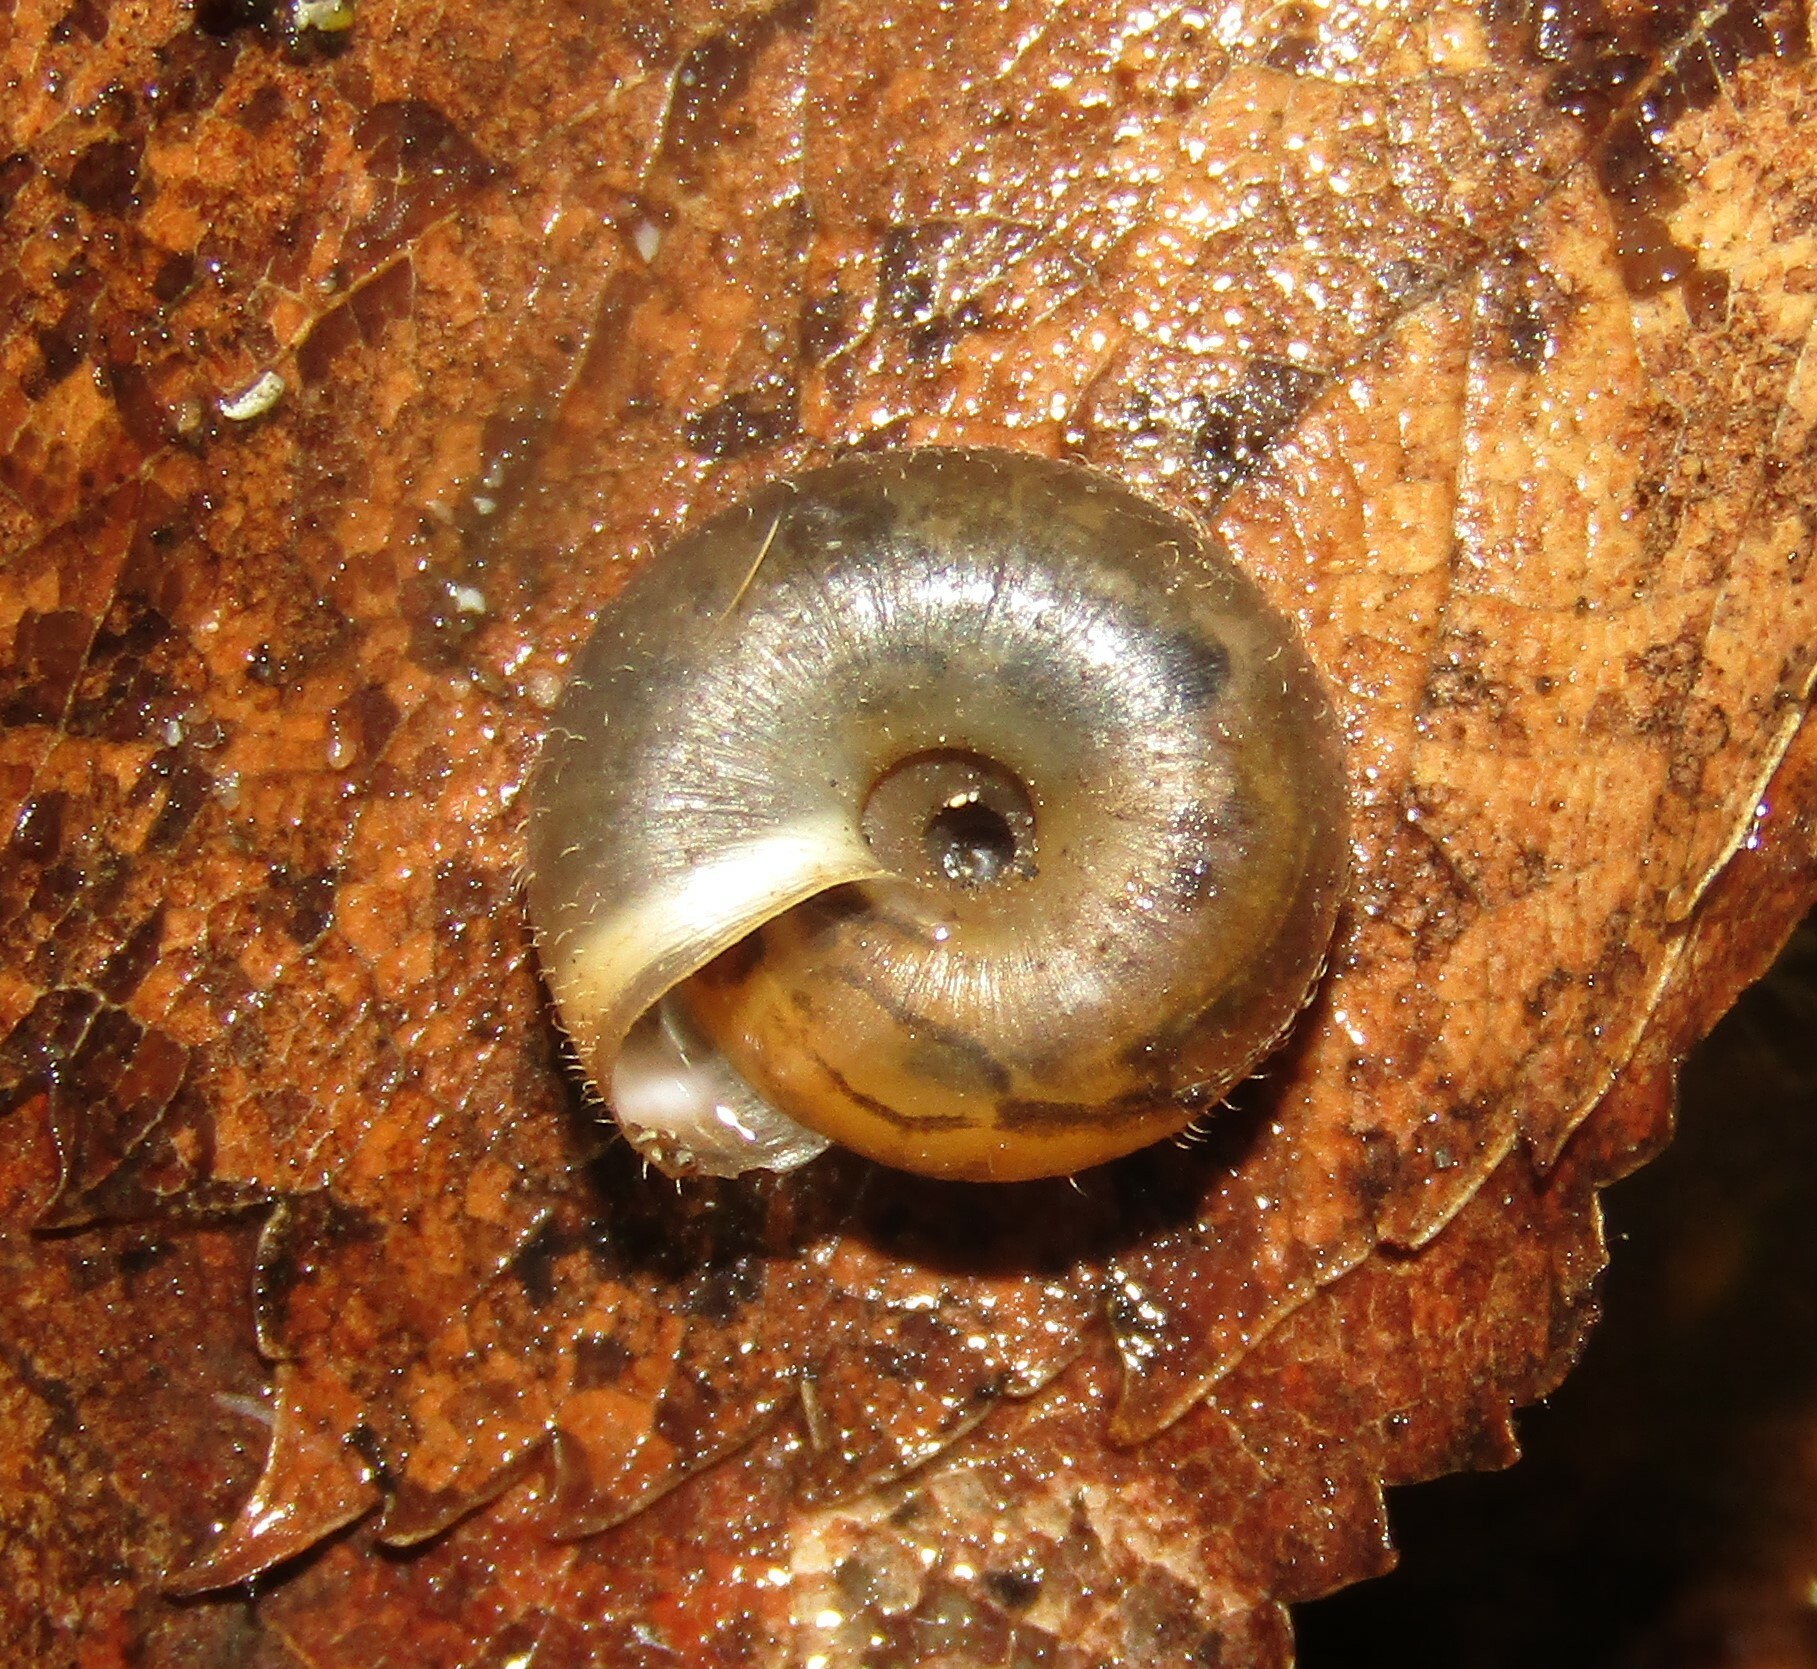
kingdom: Animalia
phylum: Mollusca
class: Gastropoda
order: Stylommatophora
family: Hygromiidae
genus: Trochulus
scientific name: Trochulus hispidus
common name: Hairy snail
